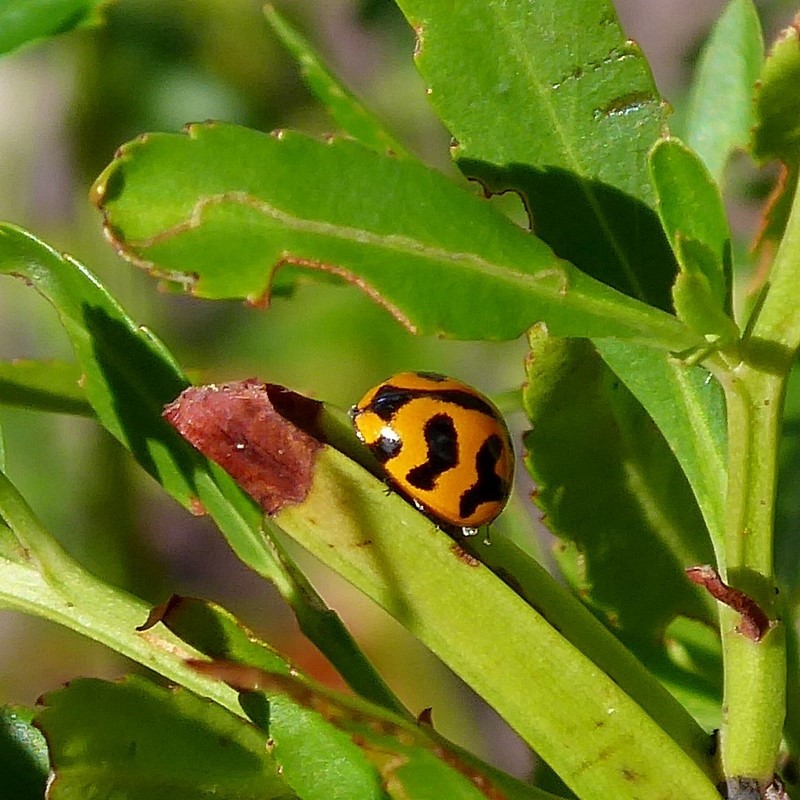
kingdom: Animalia
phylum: Arthropoda
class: Insecta
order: Coleoptera
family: Coccinellidae
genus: Coccinella
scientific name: Coccinella transversalis
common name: Transverse lady beetle
